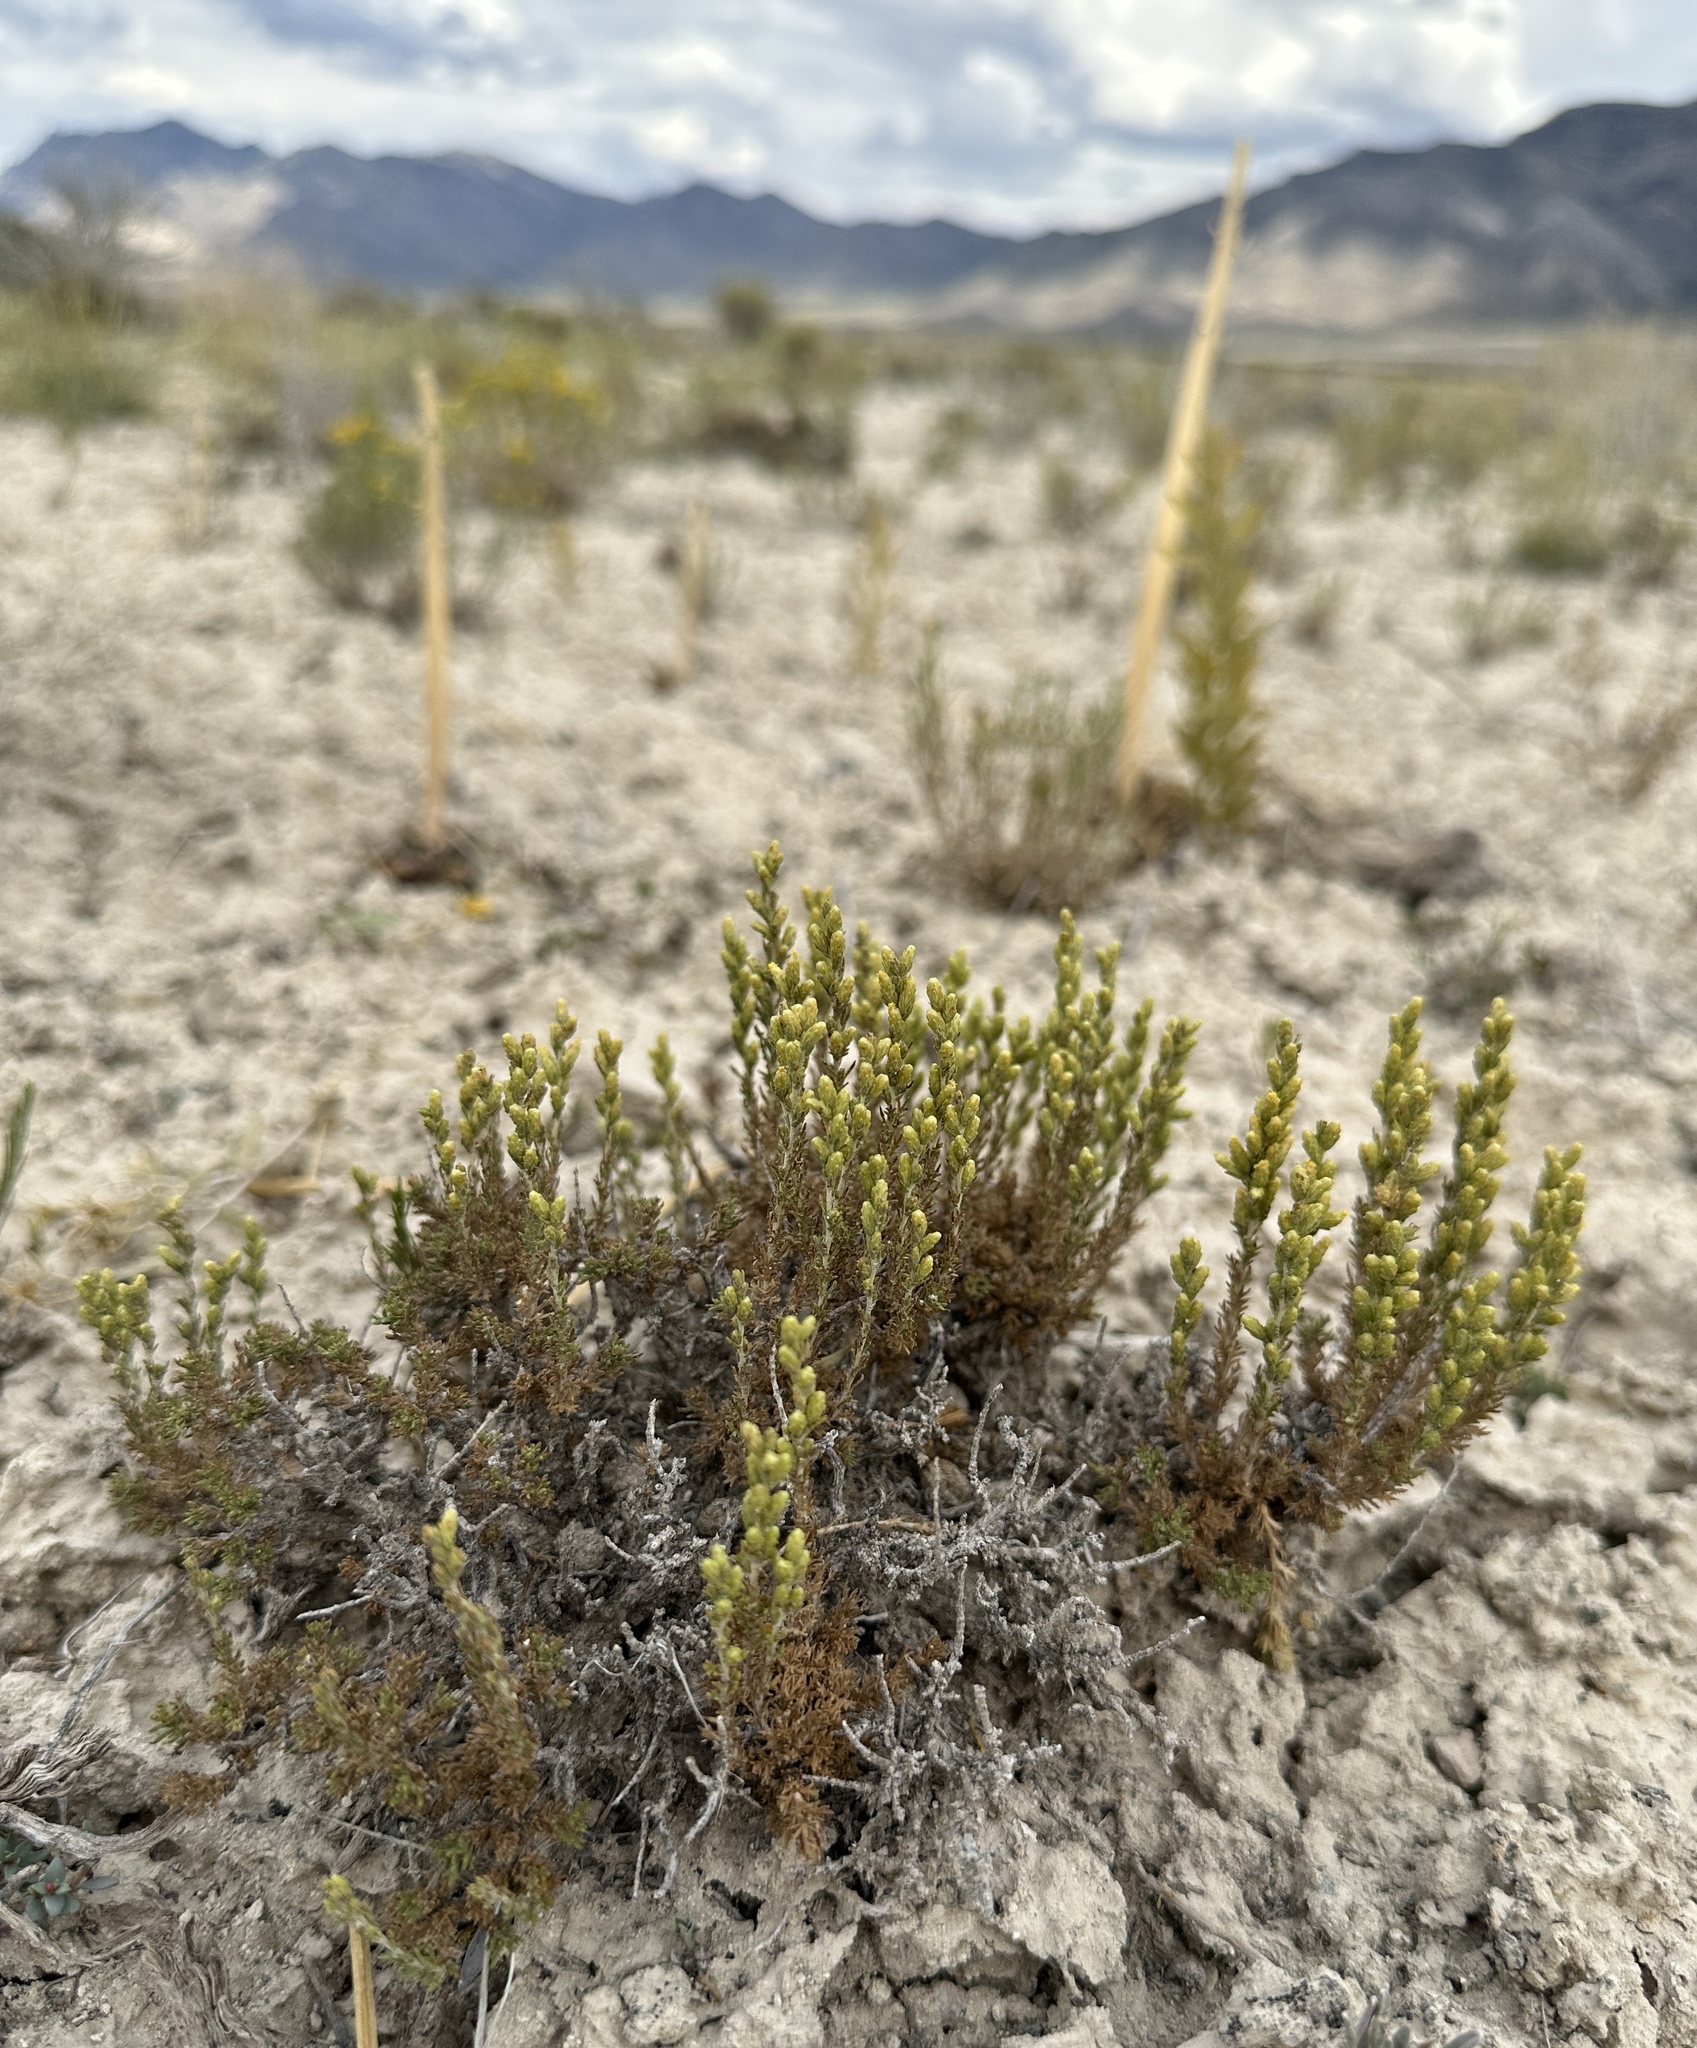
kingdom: Plantae
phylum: Tracheophyta
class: Magnoliopsida
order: Asterales
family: Asteraceae
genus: Artemisia
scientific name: Artemisia pygmaea
